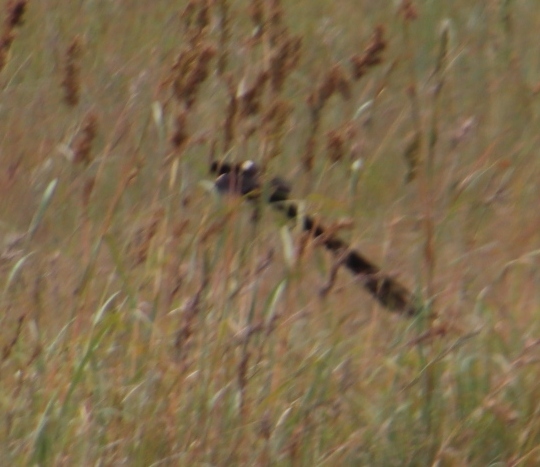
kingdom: Animalia
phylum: Chordata
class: Aves
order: Passeriformes
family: Ploceidae
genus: Euplectes
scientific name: Euplectes progne
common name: Long-tailed widowbird
